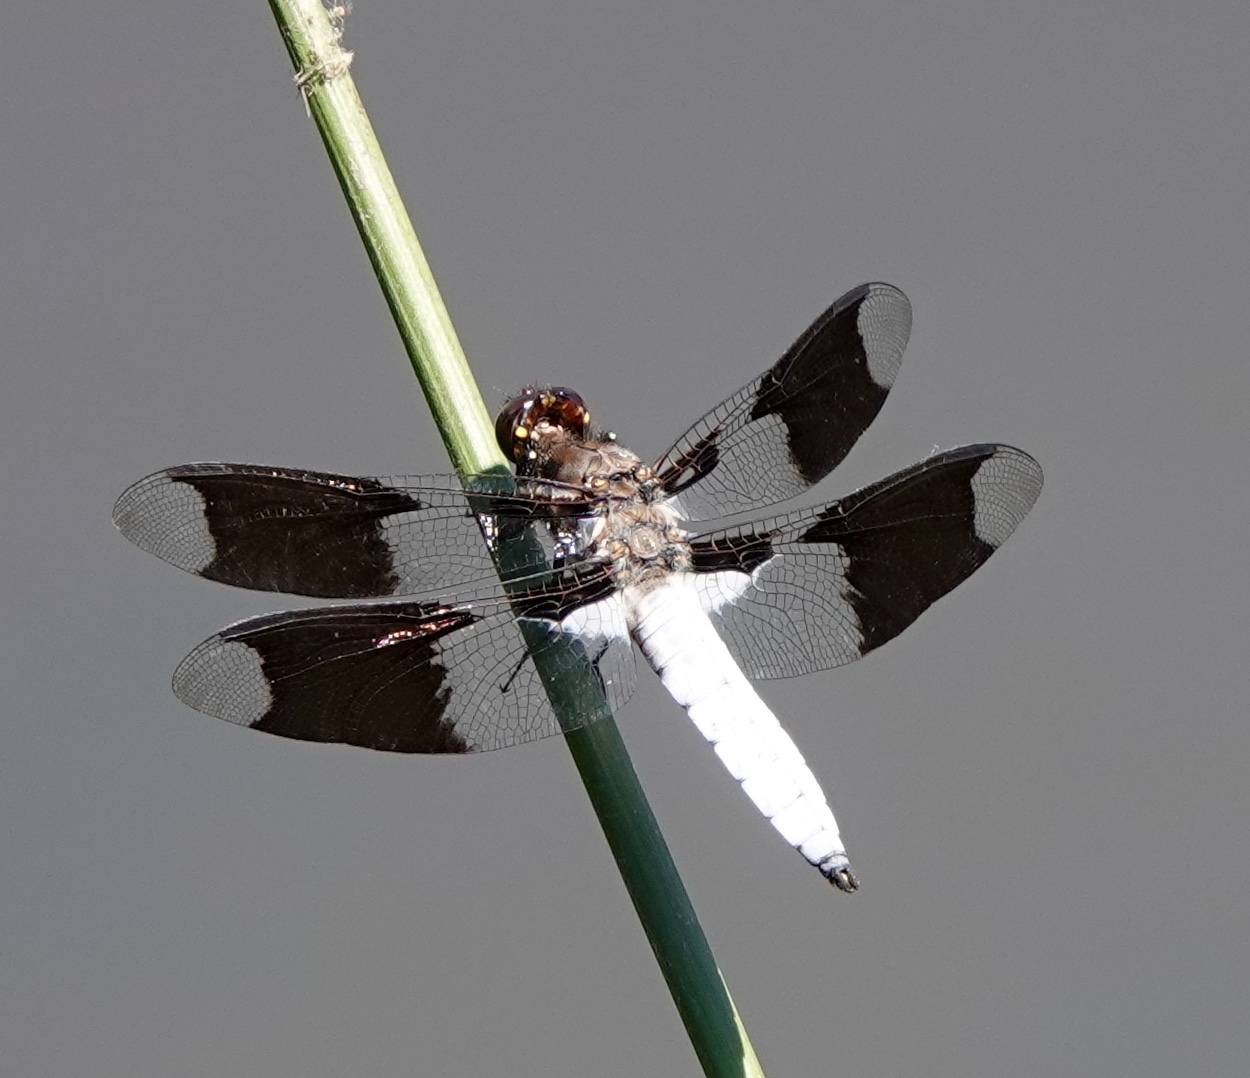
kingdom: Animalia
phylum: Arthropoda
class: Insecta
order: Odonata
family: Libellulidae
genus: Plathemis
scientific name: Plathemis lydia
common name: Common whitetail
